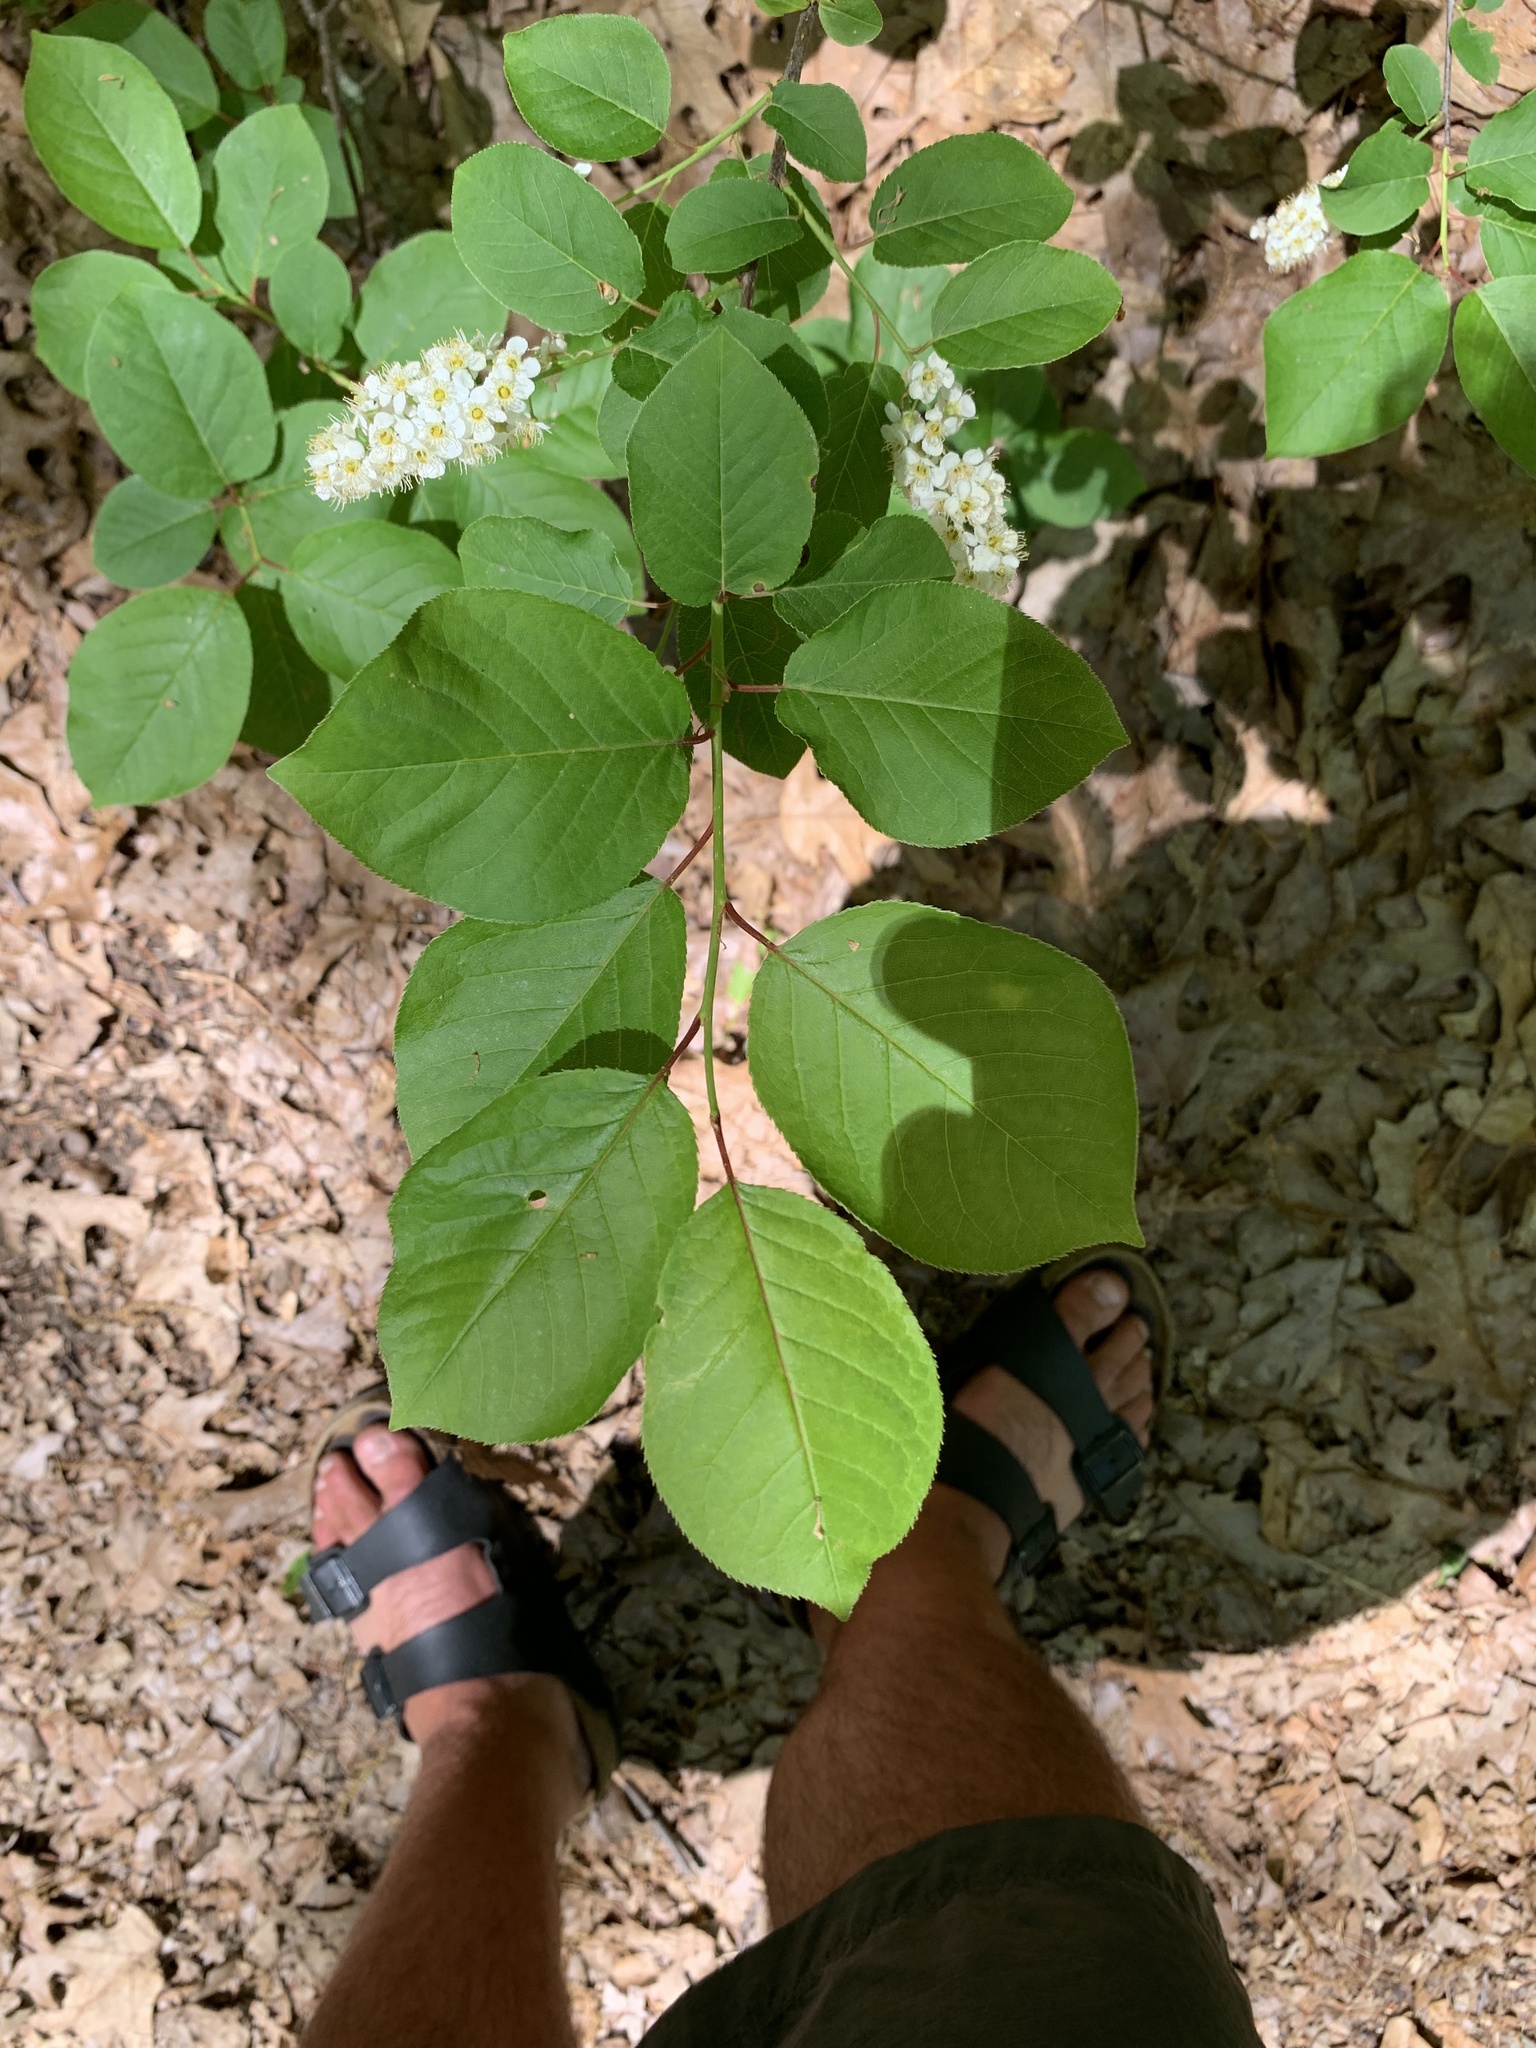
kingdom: Plantae
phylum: Tracheophyta
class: Magnoliopsida
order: Rosales
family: Rosaceae
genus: Prunus
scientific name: Prunus virginiana
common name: Chokecherry
